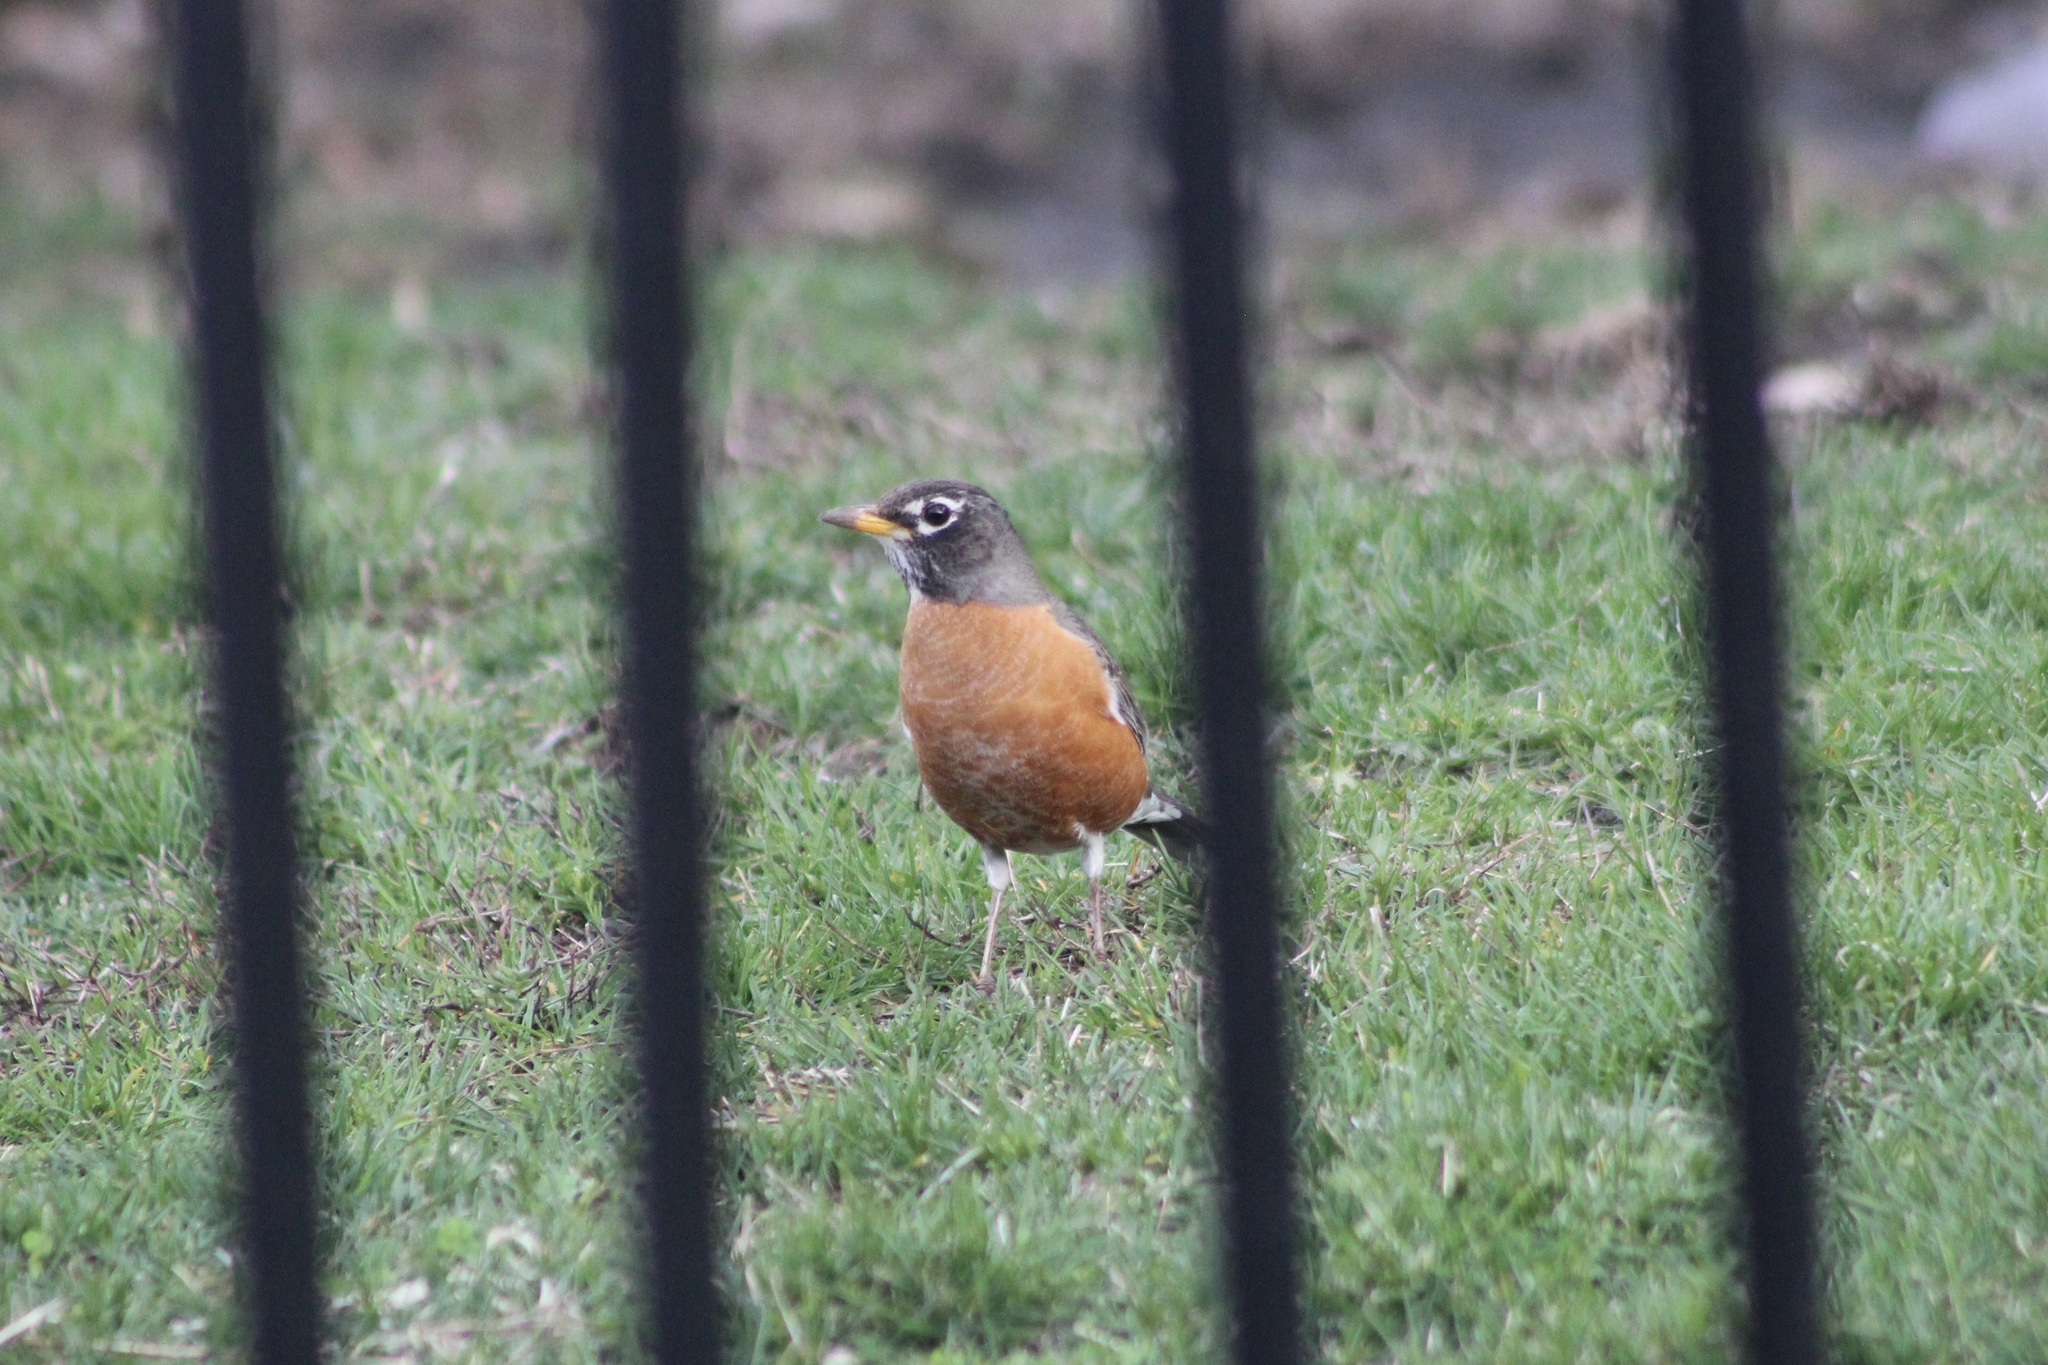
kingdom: Animalia
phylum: Chordata
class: Aves
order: Passeriformes
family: Turdidae
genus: Turdus
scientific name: Turdus migratorius
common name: American robin
